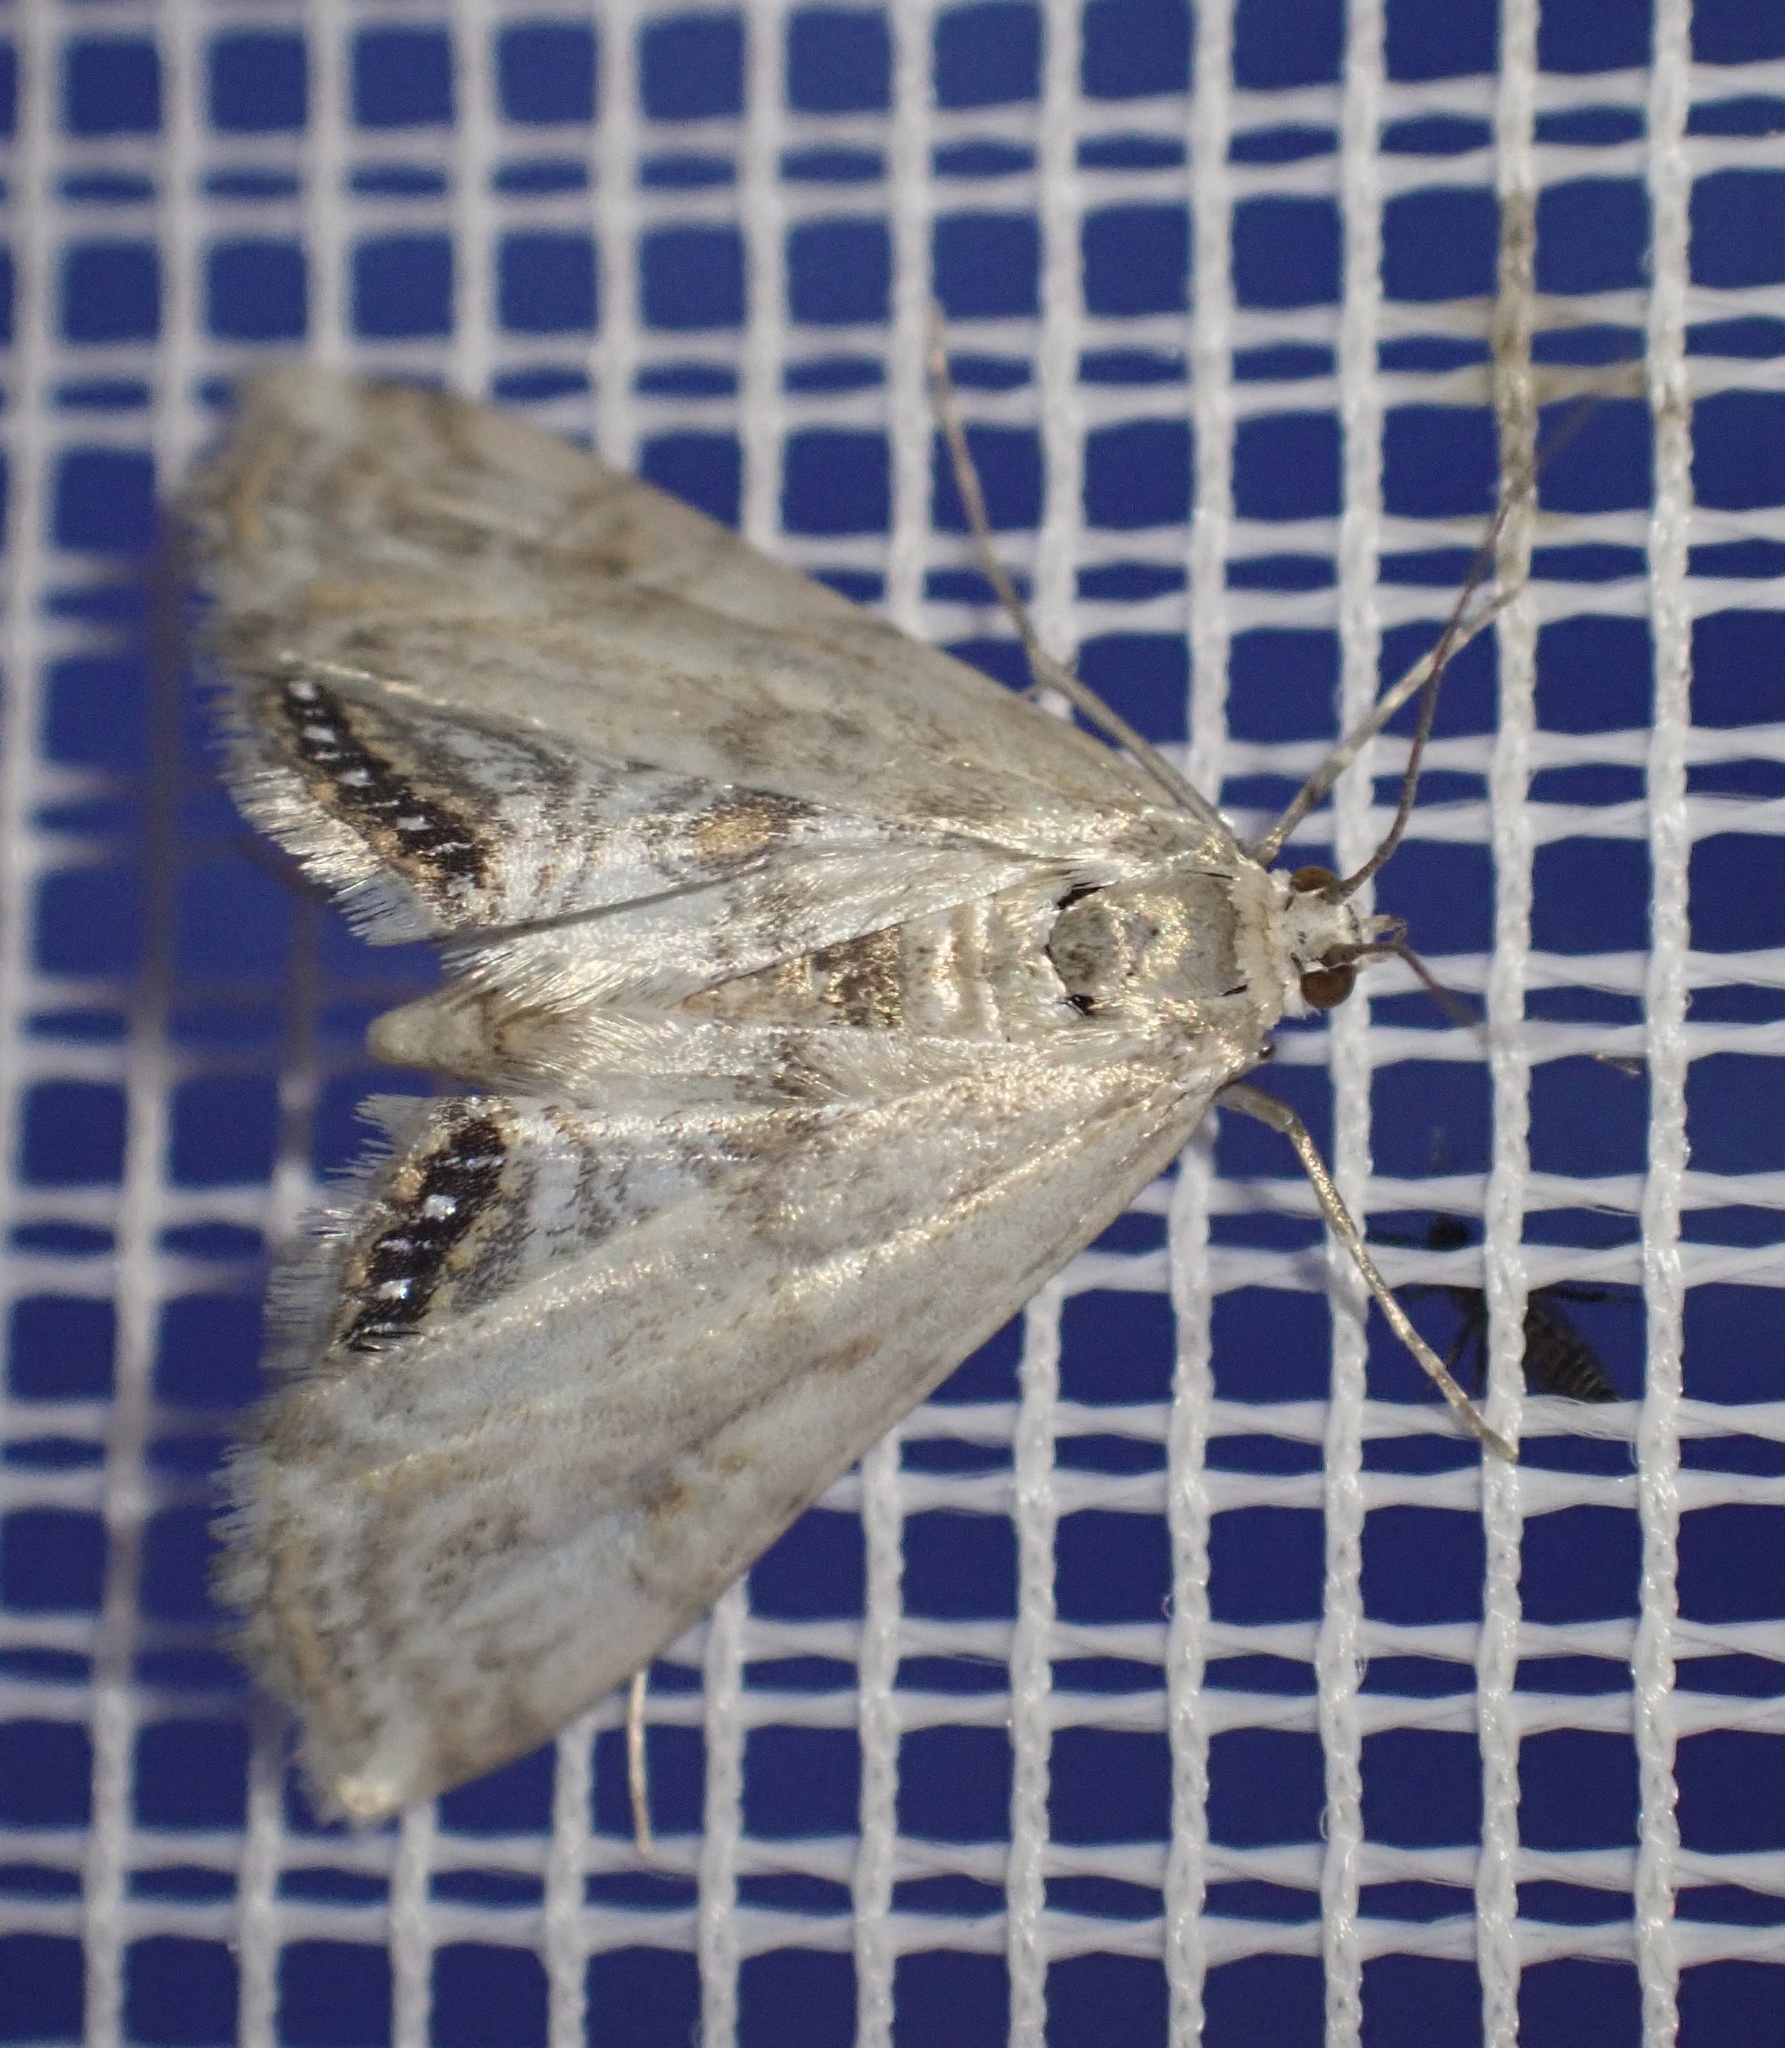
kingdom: Animalia
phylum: Arthropoda
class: Insecta
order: Lepidoptera
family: Crambidae
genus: Cataclysta
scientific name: Cataclysta lemnata
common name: Small china-mark
